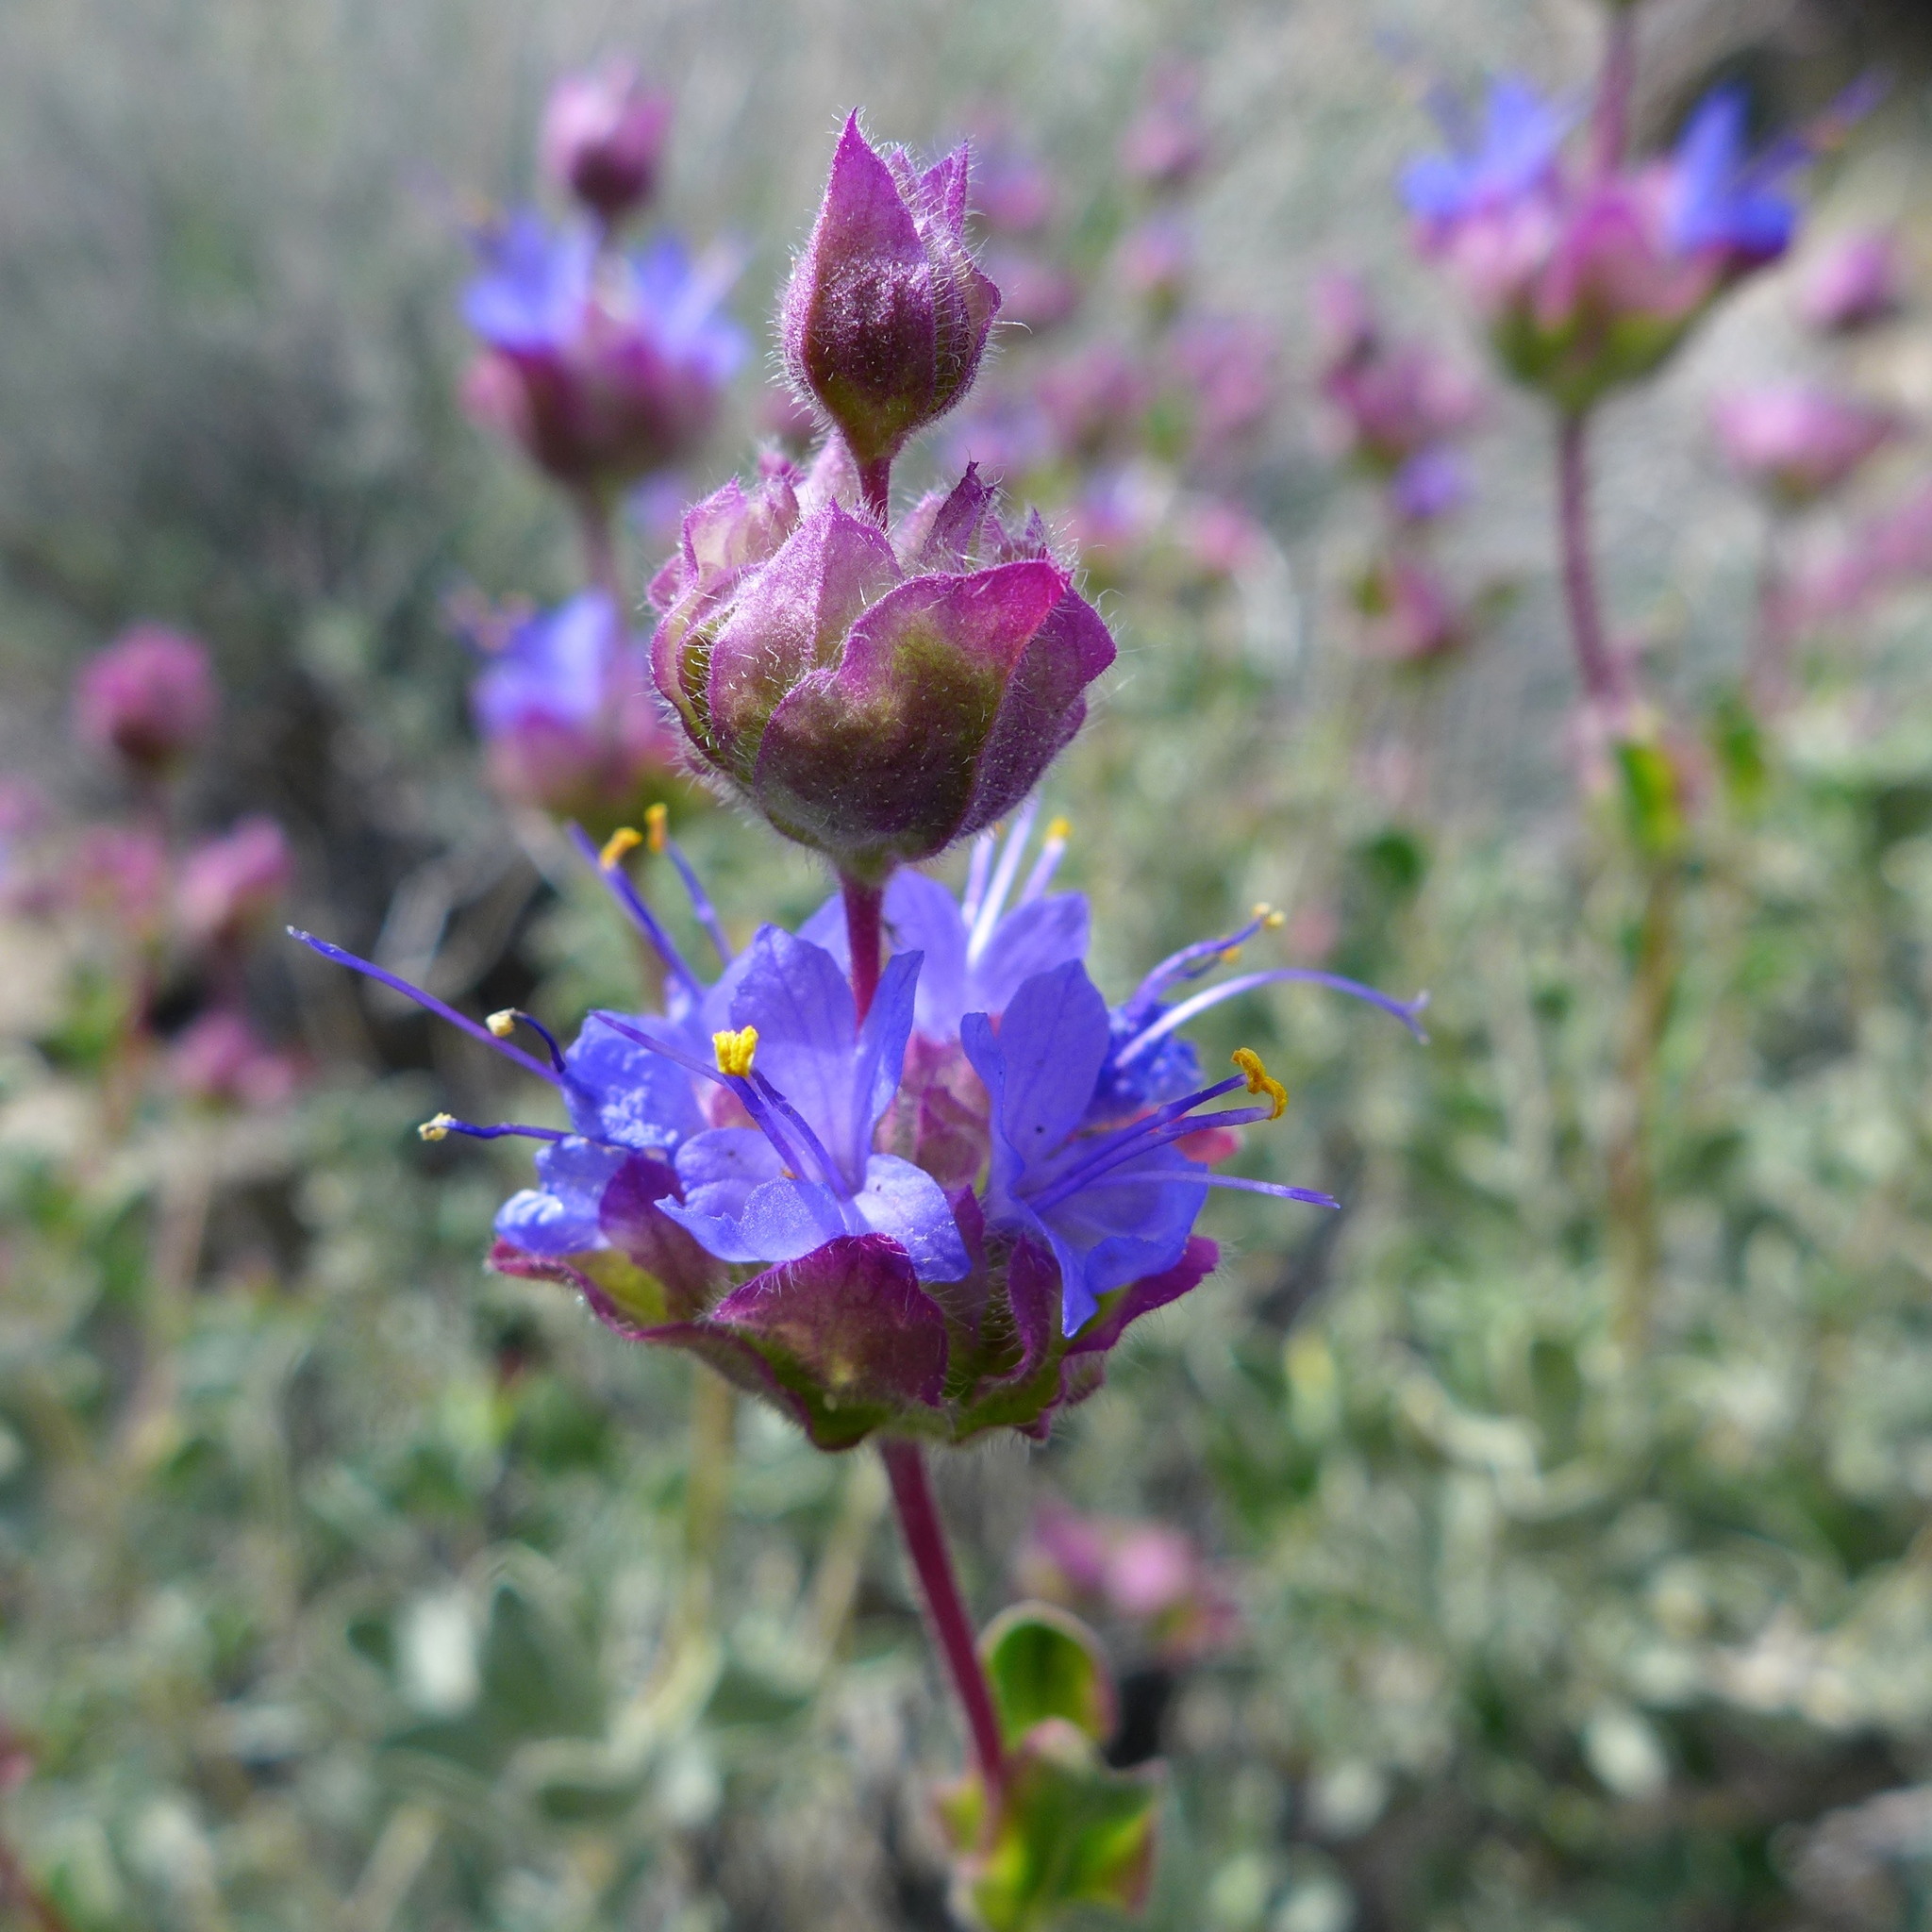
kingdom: Plantae
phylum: Tracheophyta
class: Magnoliopsida
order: Lamiales
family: Lamiaceae
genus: Salvia
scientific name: Salvia dorrii
